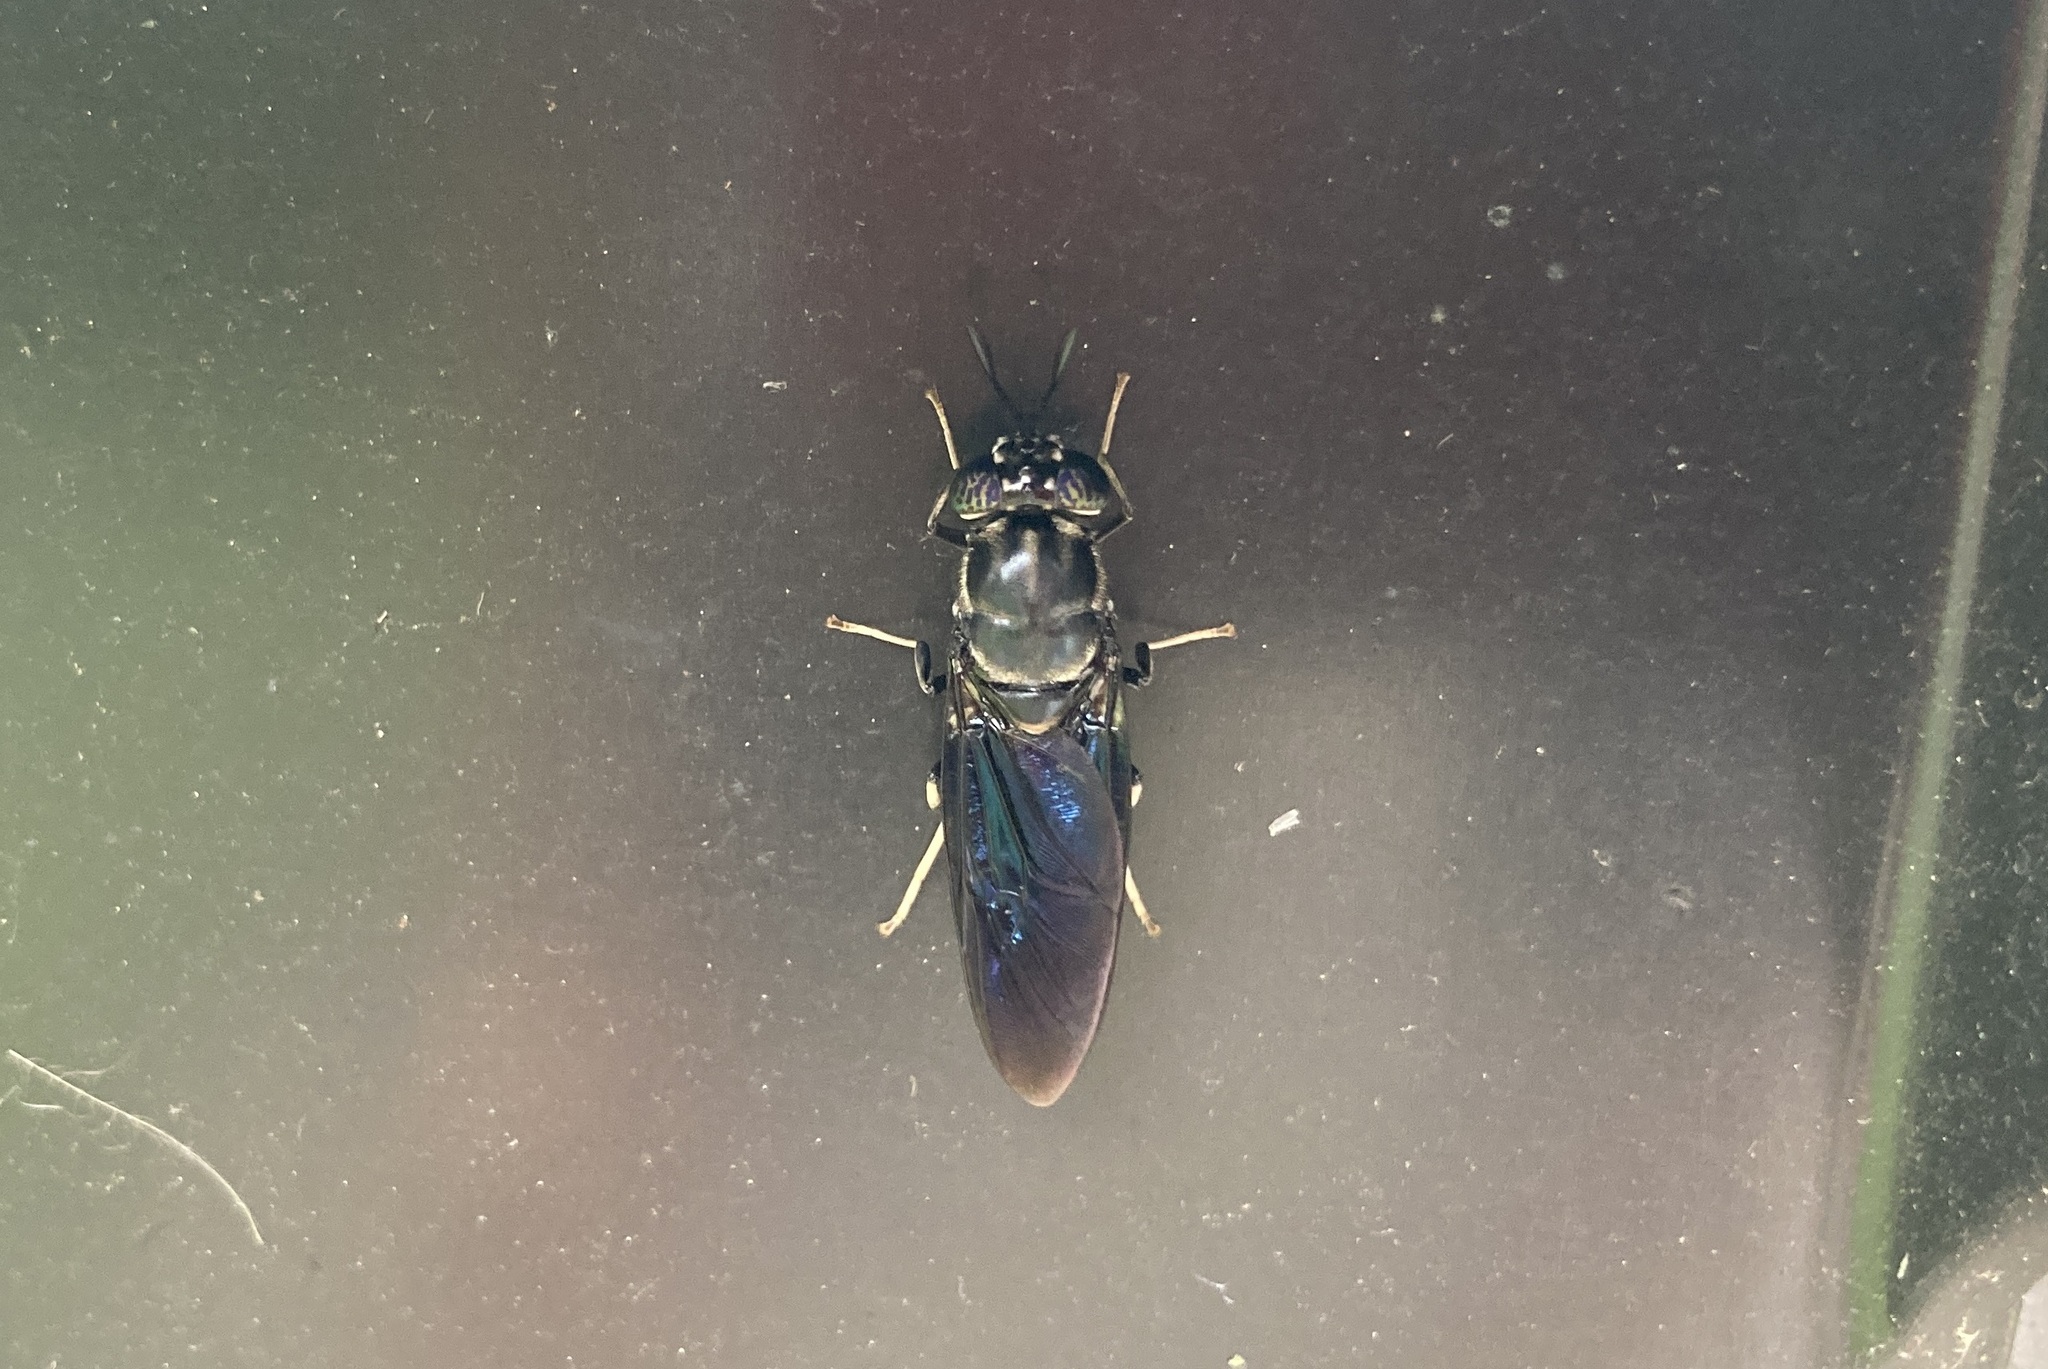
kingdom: Animalia
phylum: Arthropoda
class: Insecta
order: Diptera
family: Stratiomyidae
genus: Hermetia
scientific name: Hermetia illucens
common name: Black soldier fly
